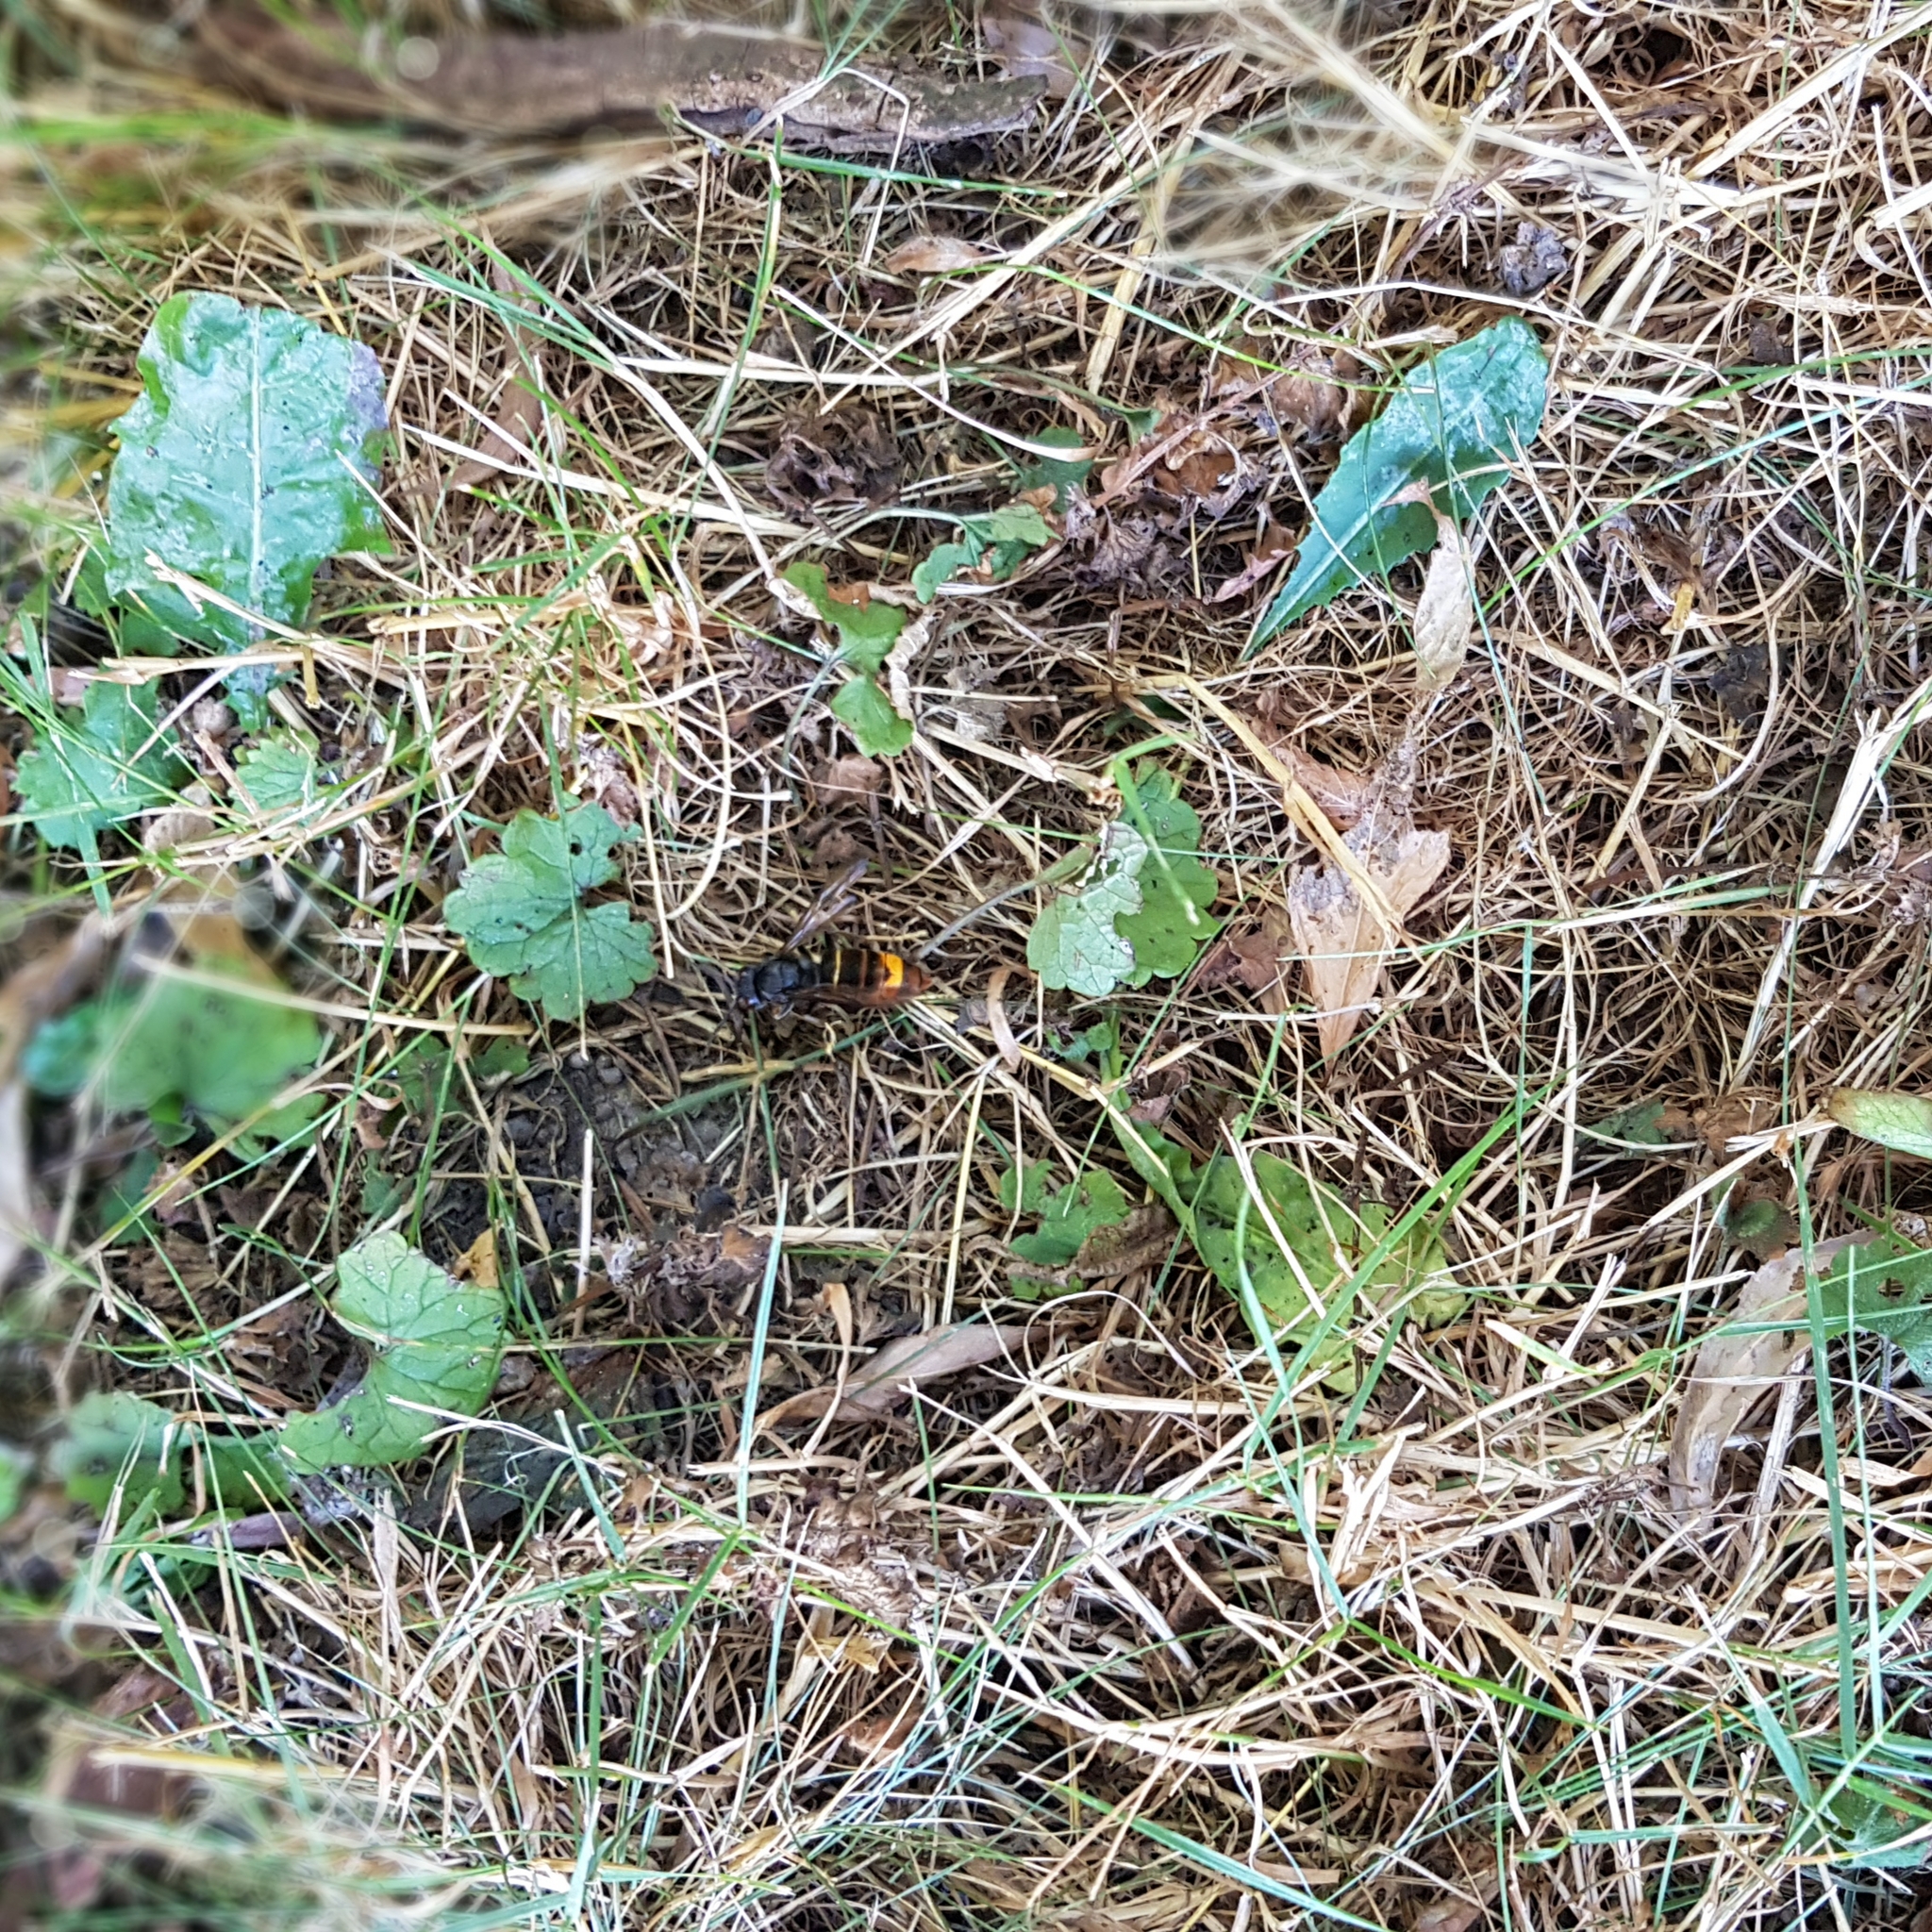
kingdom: Animalia
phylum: Arthropoda
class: Insecta
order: Hymenoptera
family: Vespidae
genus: Vespa
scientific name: Vespa velutina
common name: Asian hornet
